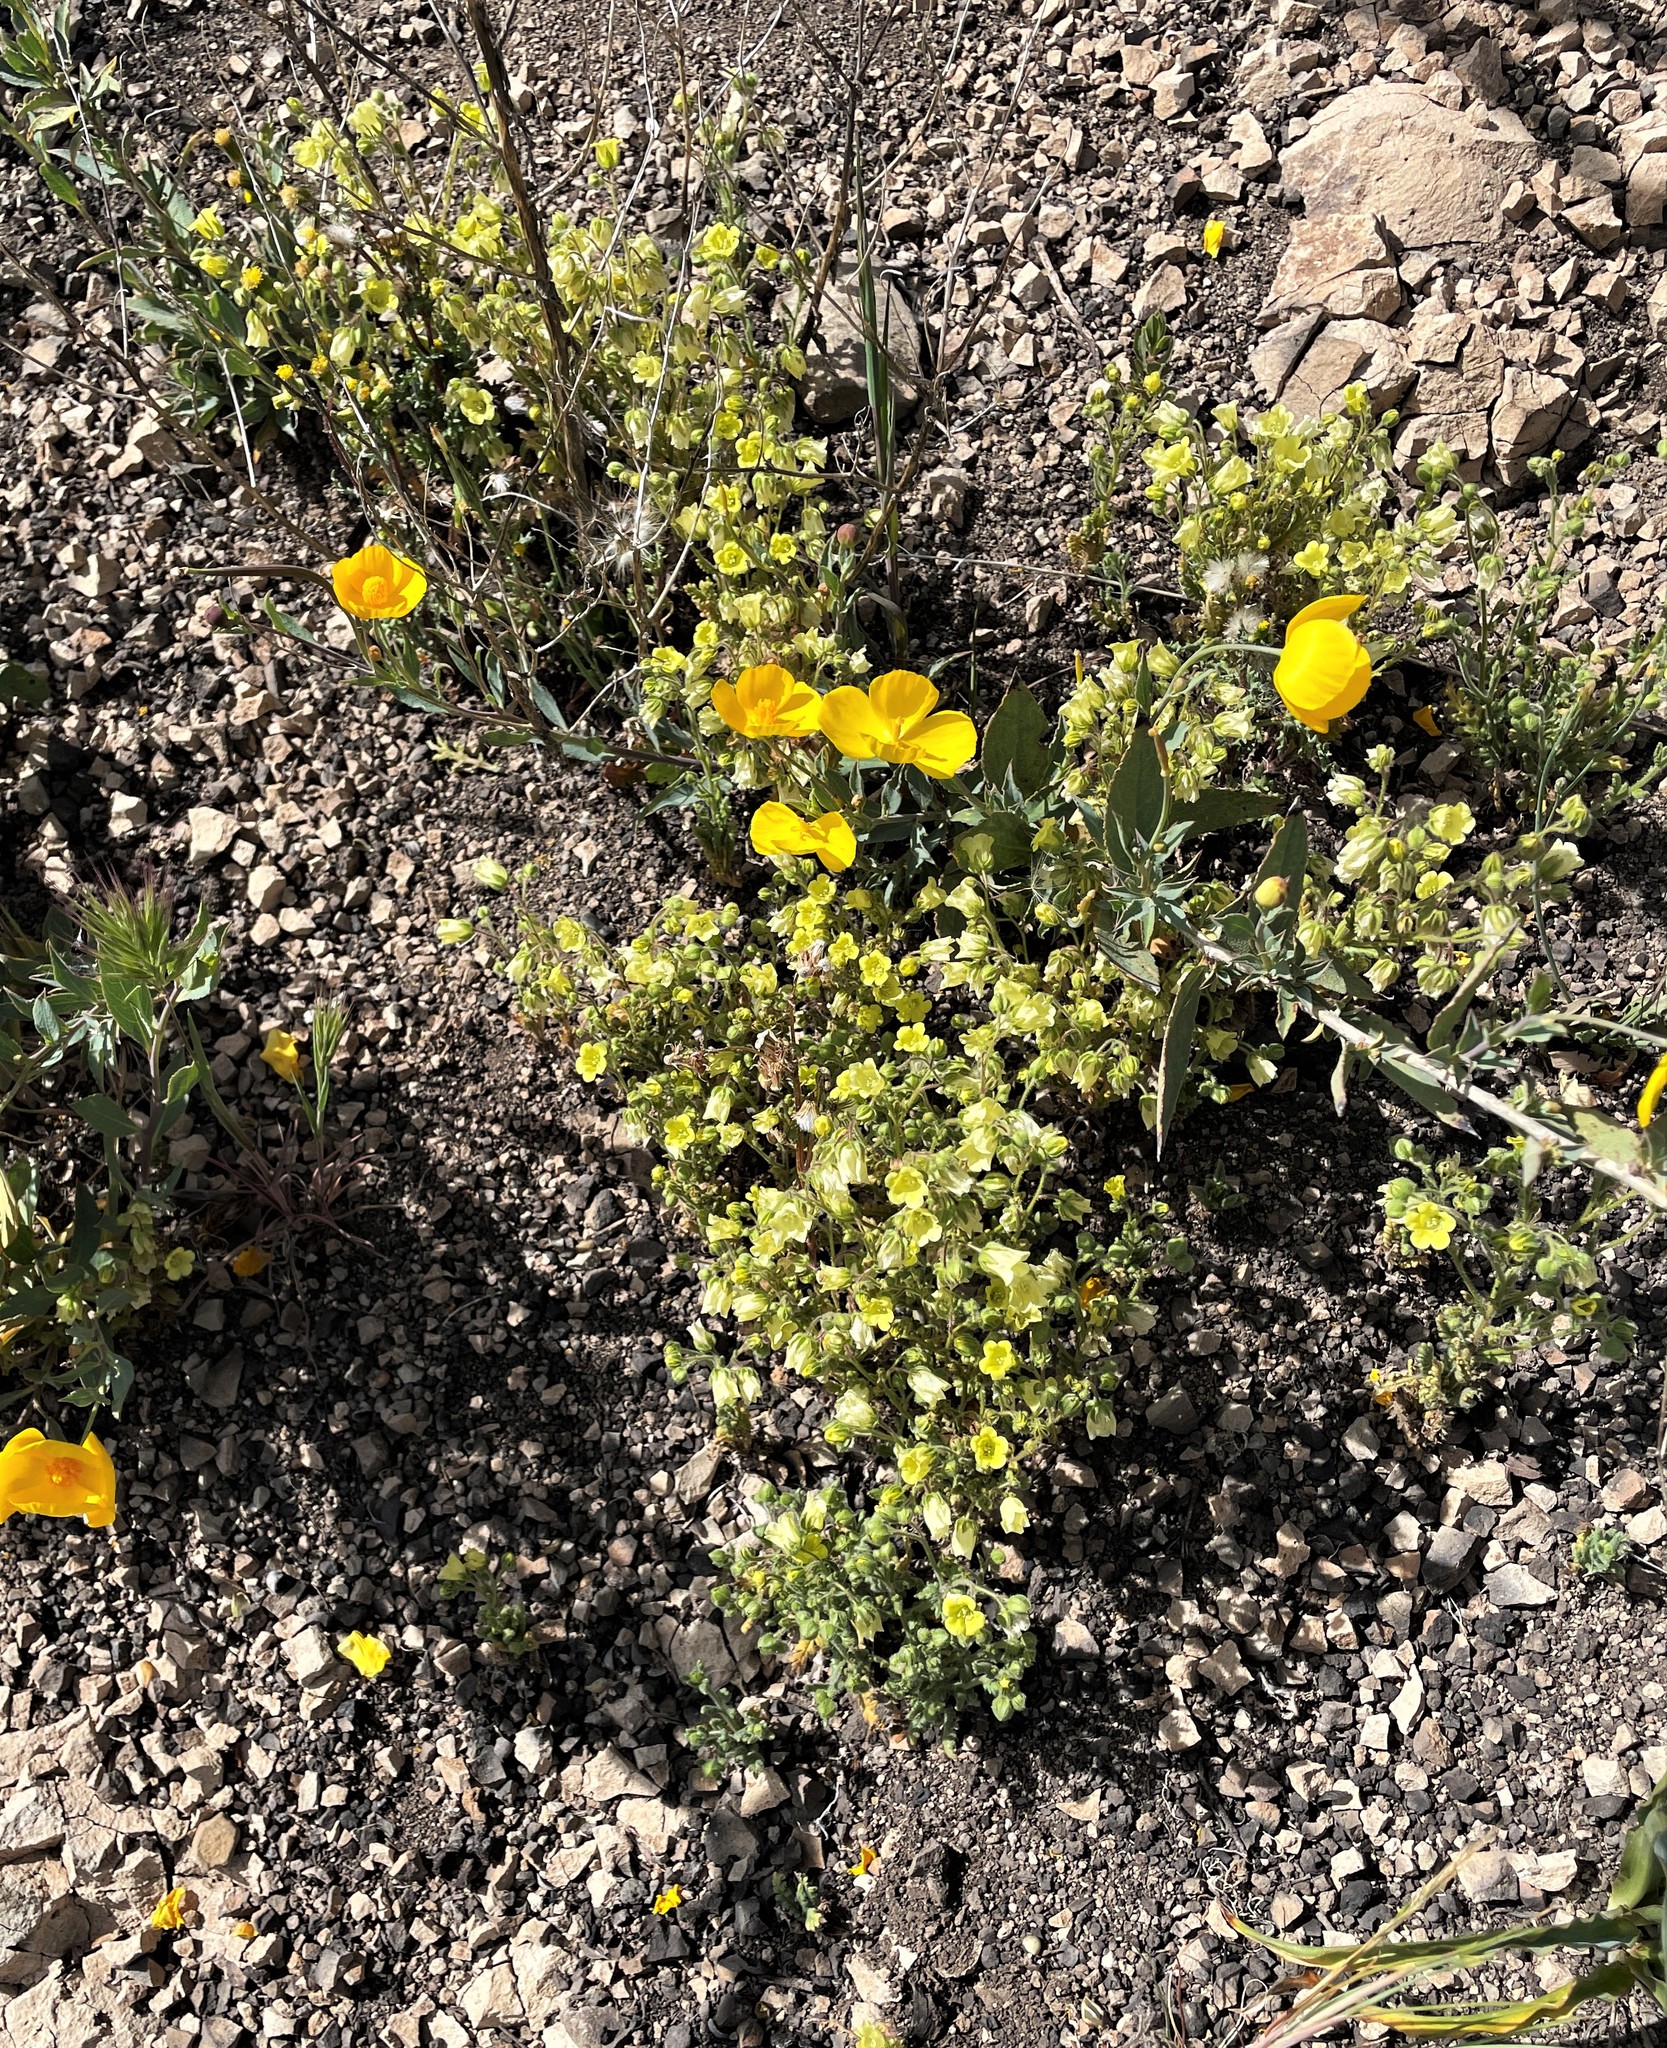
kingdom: Plantae
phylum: Tracheophyta
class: Magnoliopsida
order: Boraginales
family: Hydrophyllaceae
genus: Emmenanthe
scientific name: Emmenanthe penduliflora
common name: Whispering-bells
